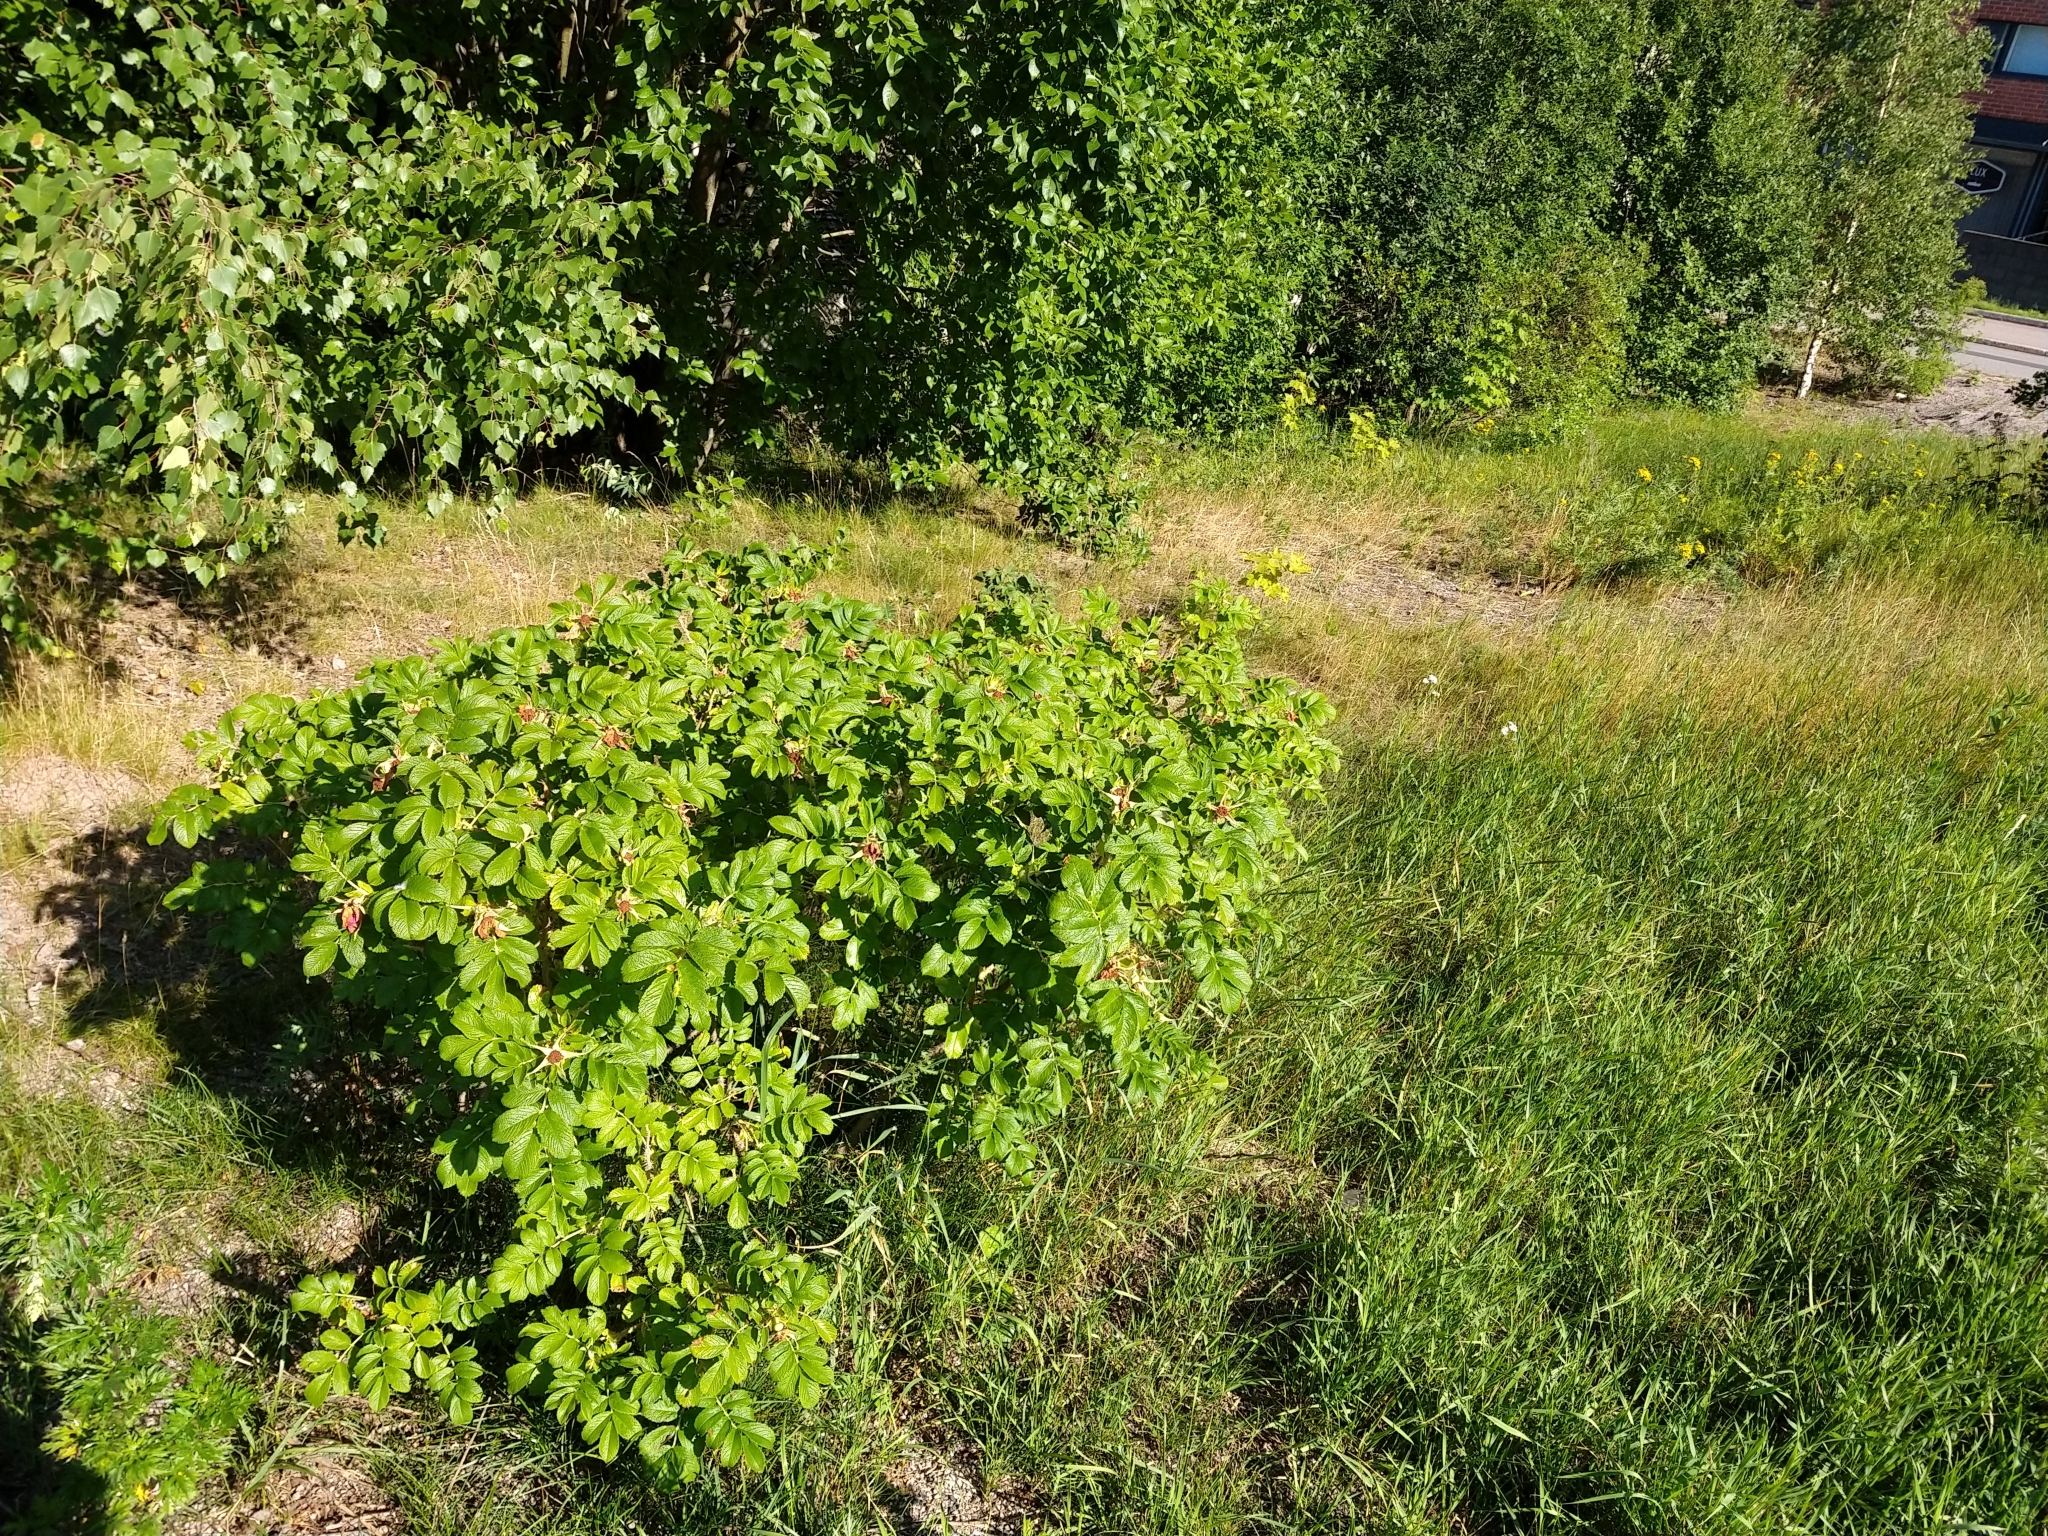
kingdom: Plantae
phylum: Tracheophyta
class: Magnoliopsida
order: Rosales
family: Rosaceae
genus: Rosa
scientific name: Rosa rugosa
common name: Japanese rose
